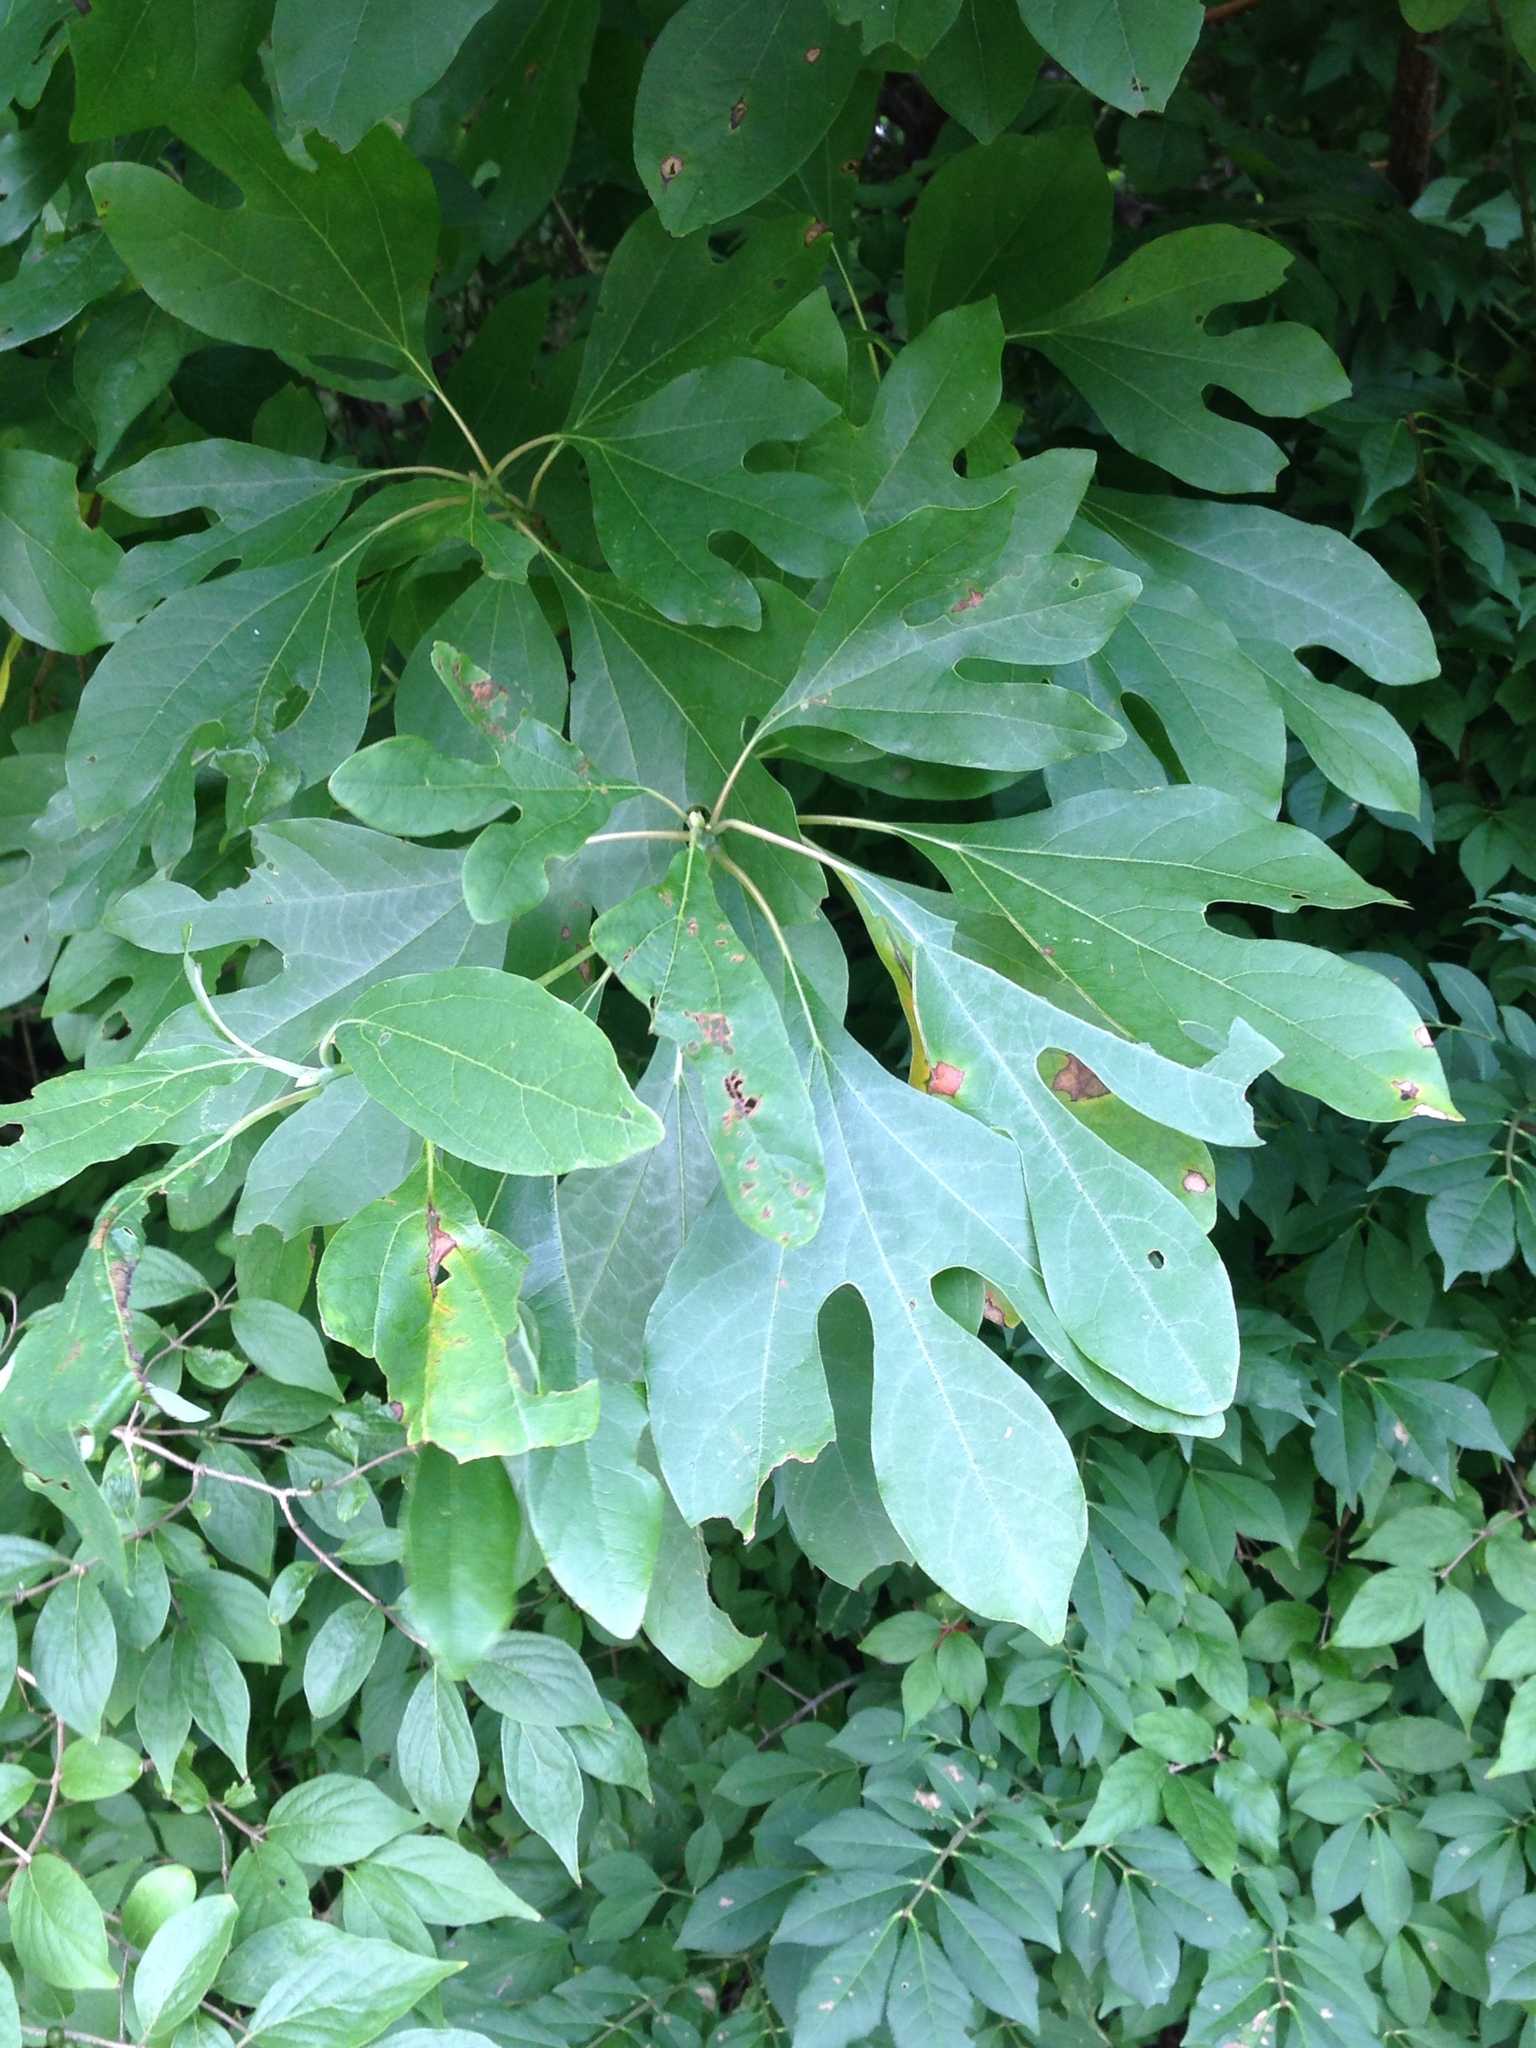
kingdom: Plantae
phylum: Tracheophyta
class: Magnoliopsida
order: Laurales
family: Lauraceae
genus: Sassafras
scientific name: Sassafras albidum
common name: Sassafras
